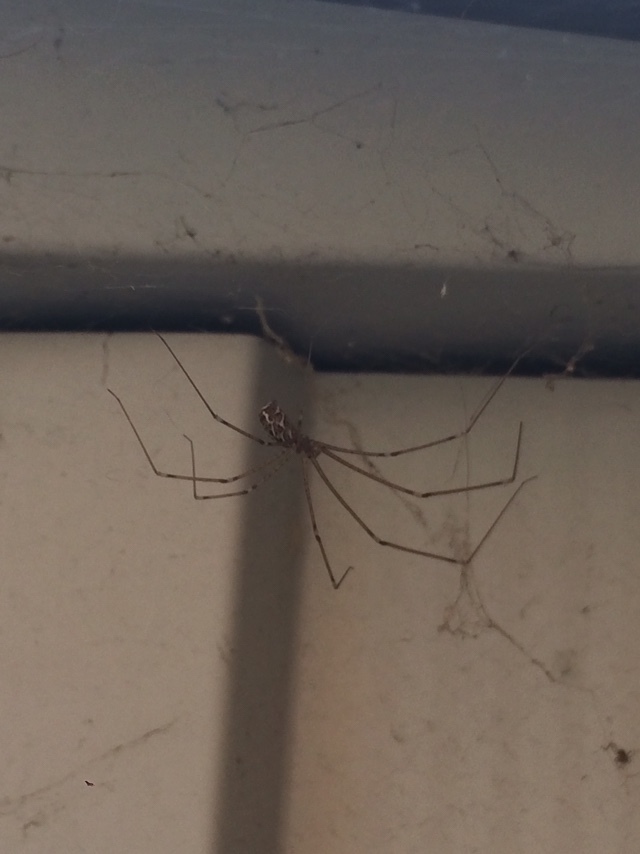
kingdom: Animalia
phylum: Arthropoda
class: Arachnida
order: Araneae
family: Pholcidae
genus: Holocnemus
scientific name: Holocnemus pluchei
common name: Marbled cellar spider
